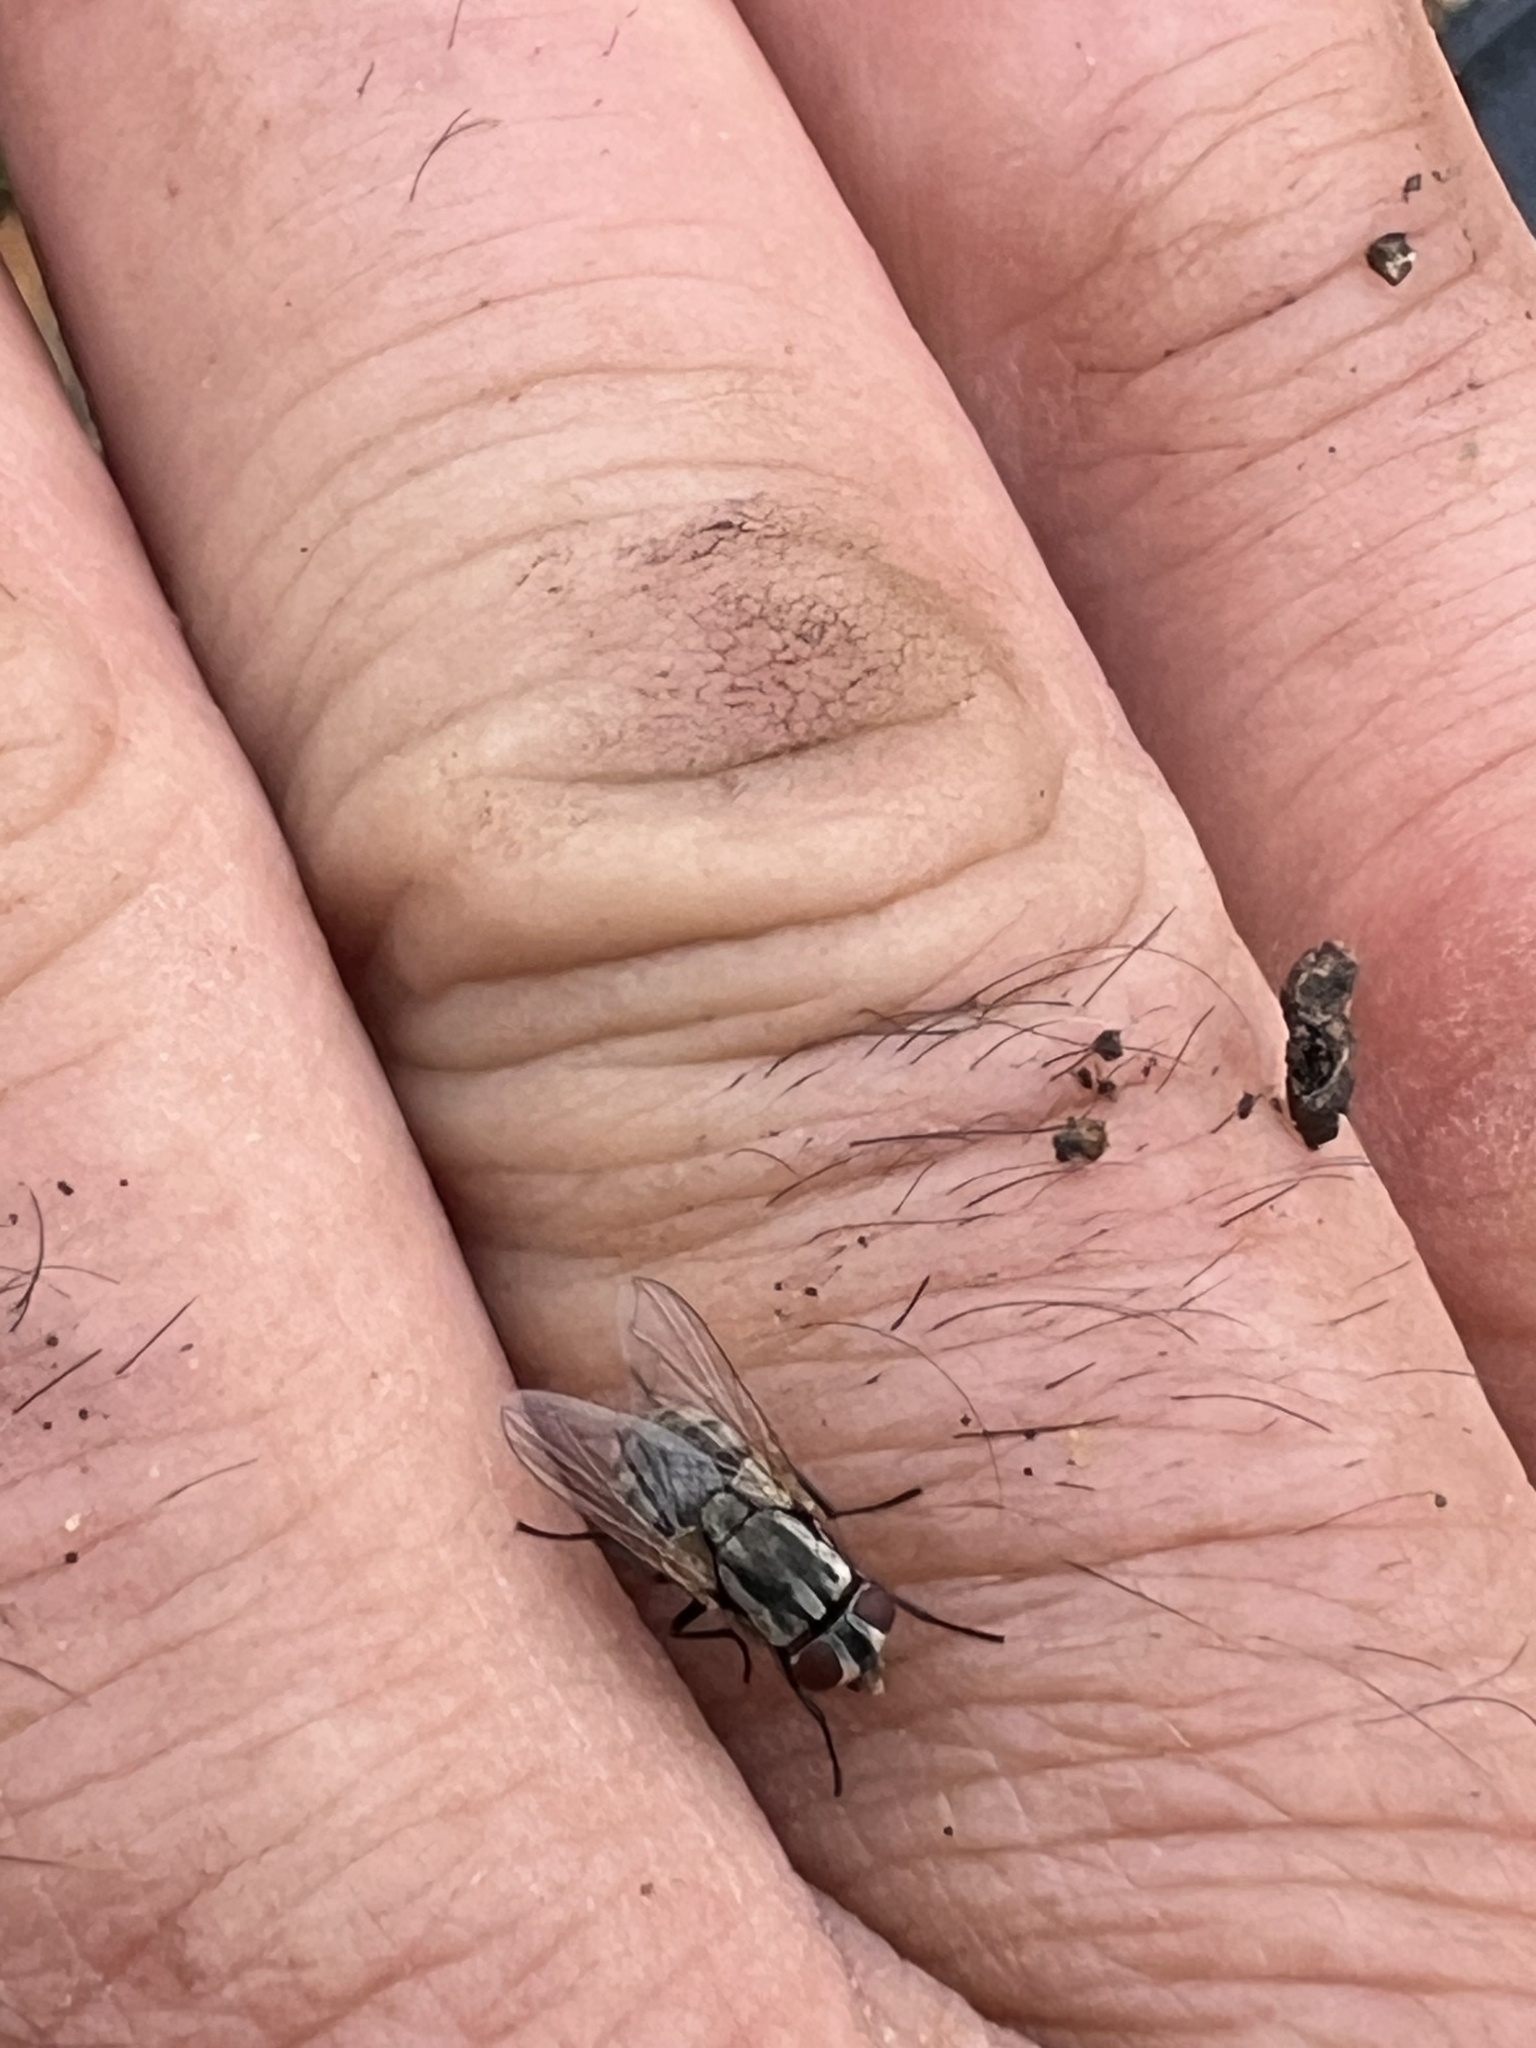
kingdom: Animalia
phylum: Arthropoda
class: Insecta
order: Diptera
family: Muscidae
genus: Musca
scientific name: Musca vetustissima
